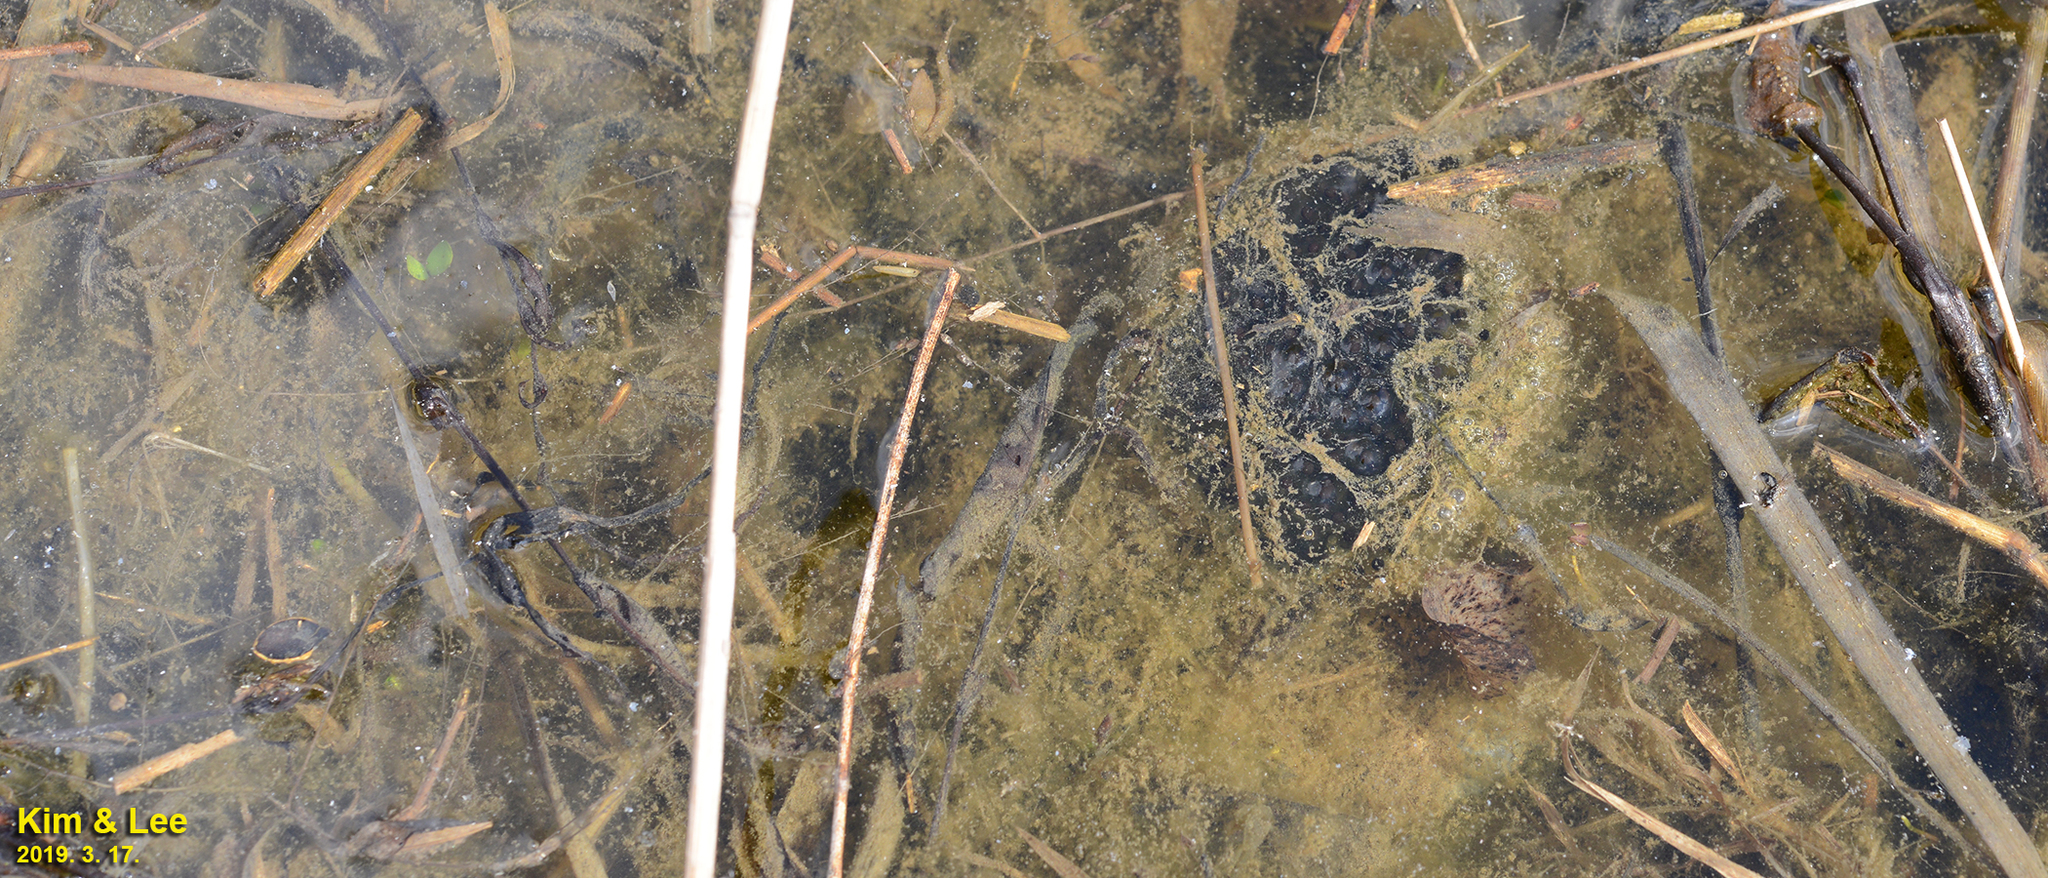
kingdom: Animalia
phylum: Chordata
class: Amphibia
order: Anura
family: Ranidae
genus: Rana
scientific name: Rana coreana
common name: Korean brown frog
